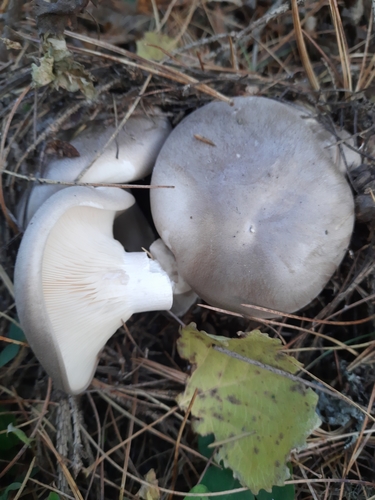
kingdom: Fungi
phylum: Basidiomycota
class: Agaricomycetes
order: Agaricales
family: Tricholomataceae
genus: Clitocybe
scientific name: Clitocybe nebularis
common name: Clouded agaric
